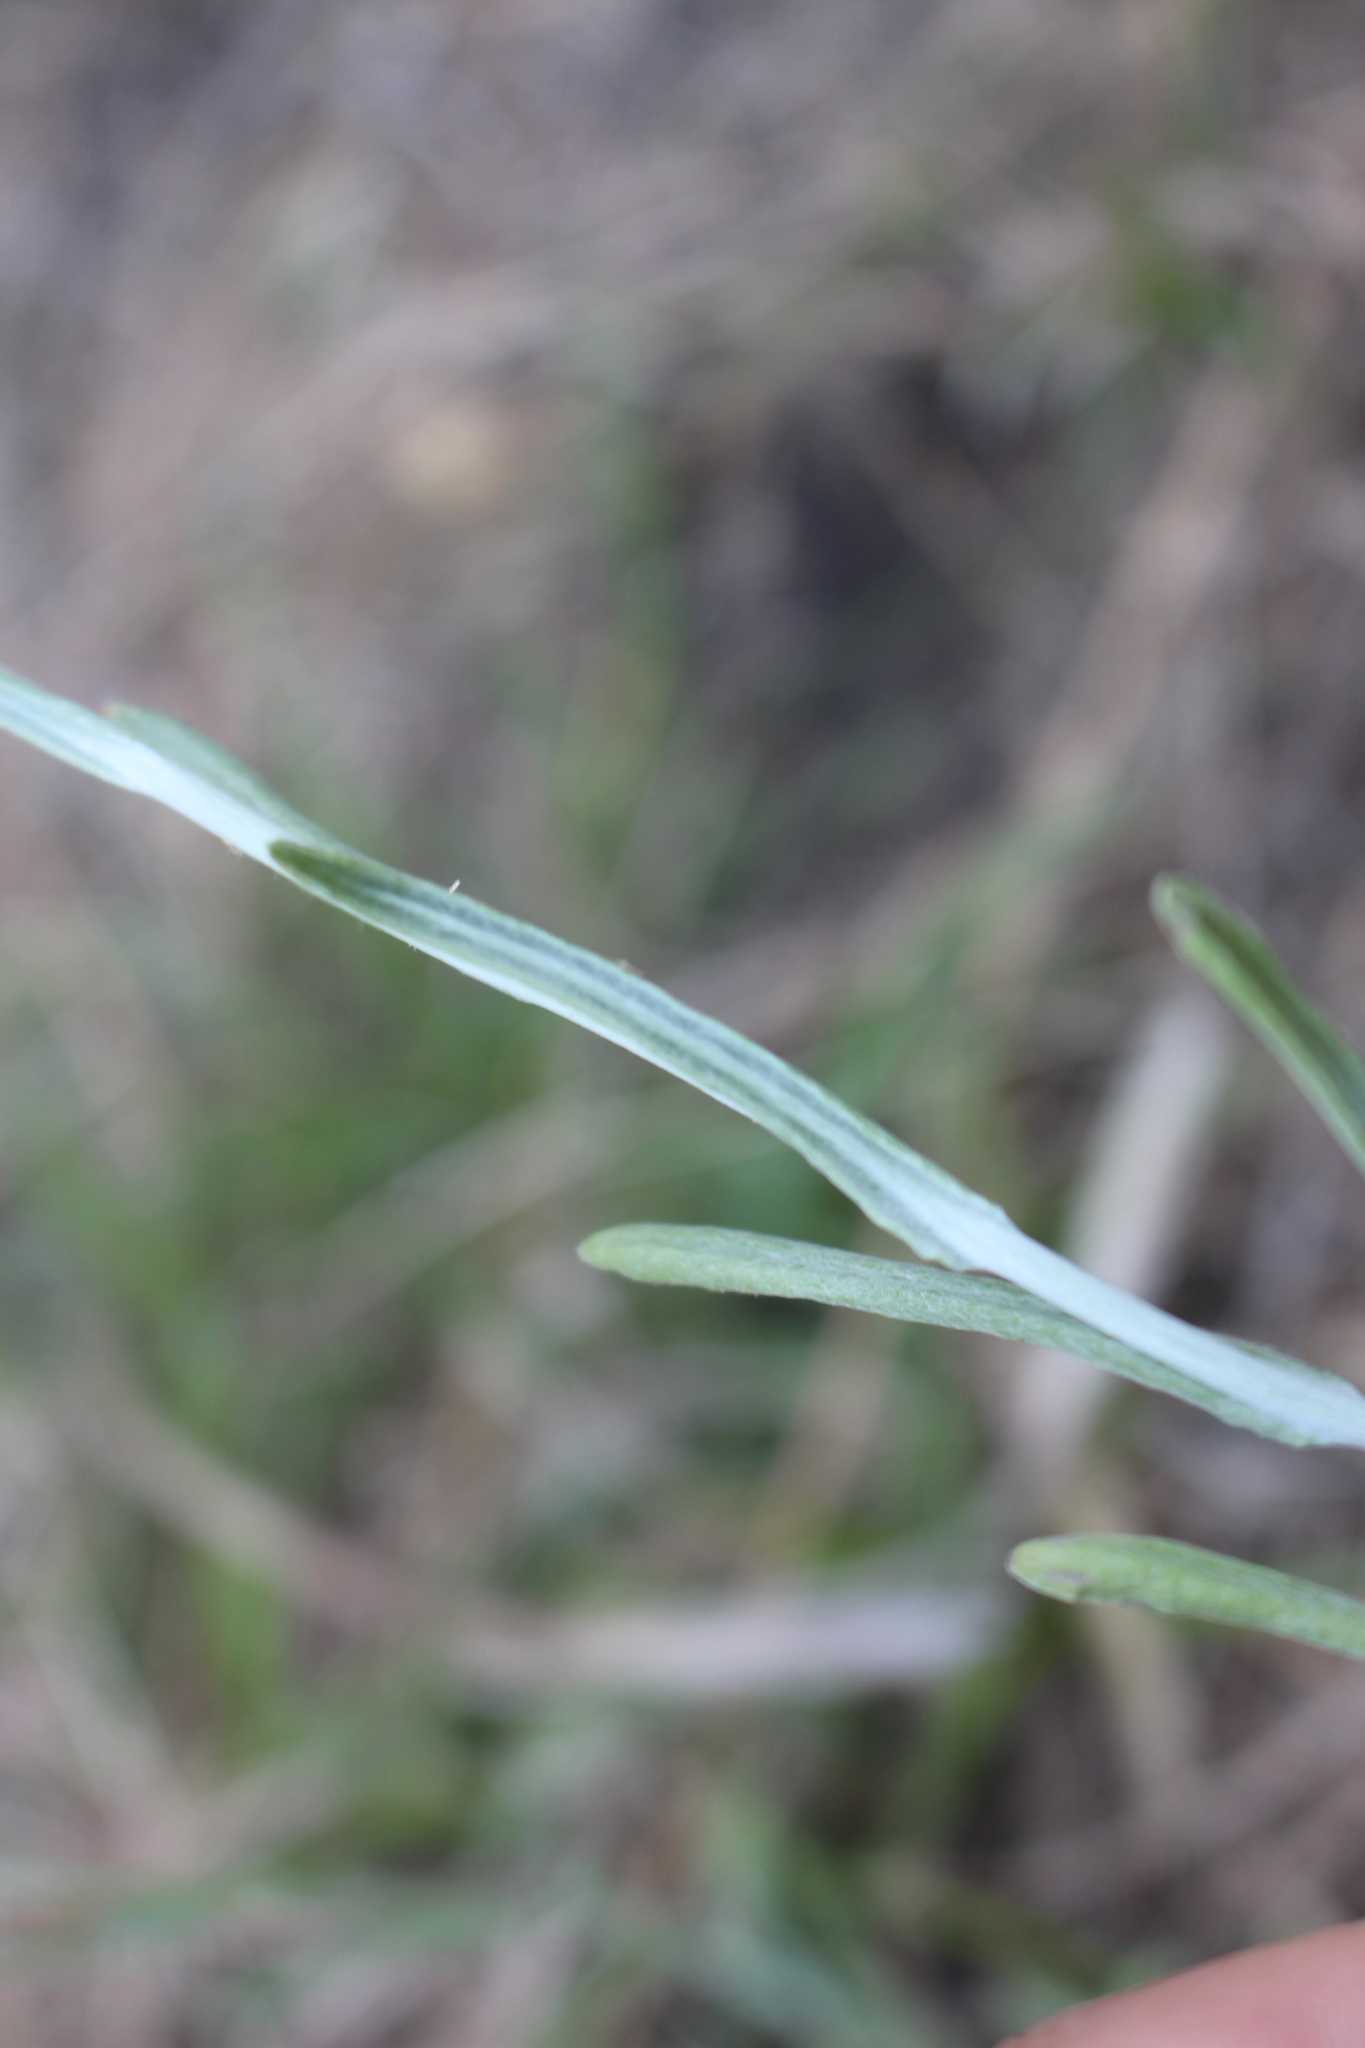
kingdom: Plantae
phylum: Tracheophyta
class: Magnoliopsida
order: Asterales
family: Asteraceae
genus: Helichrysum
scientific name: Helichrysum luteoalbum
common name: Daisy
